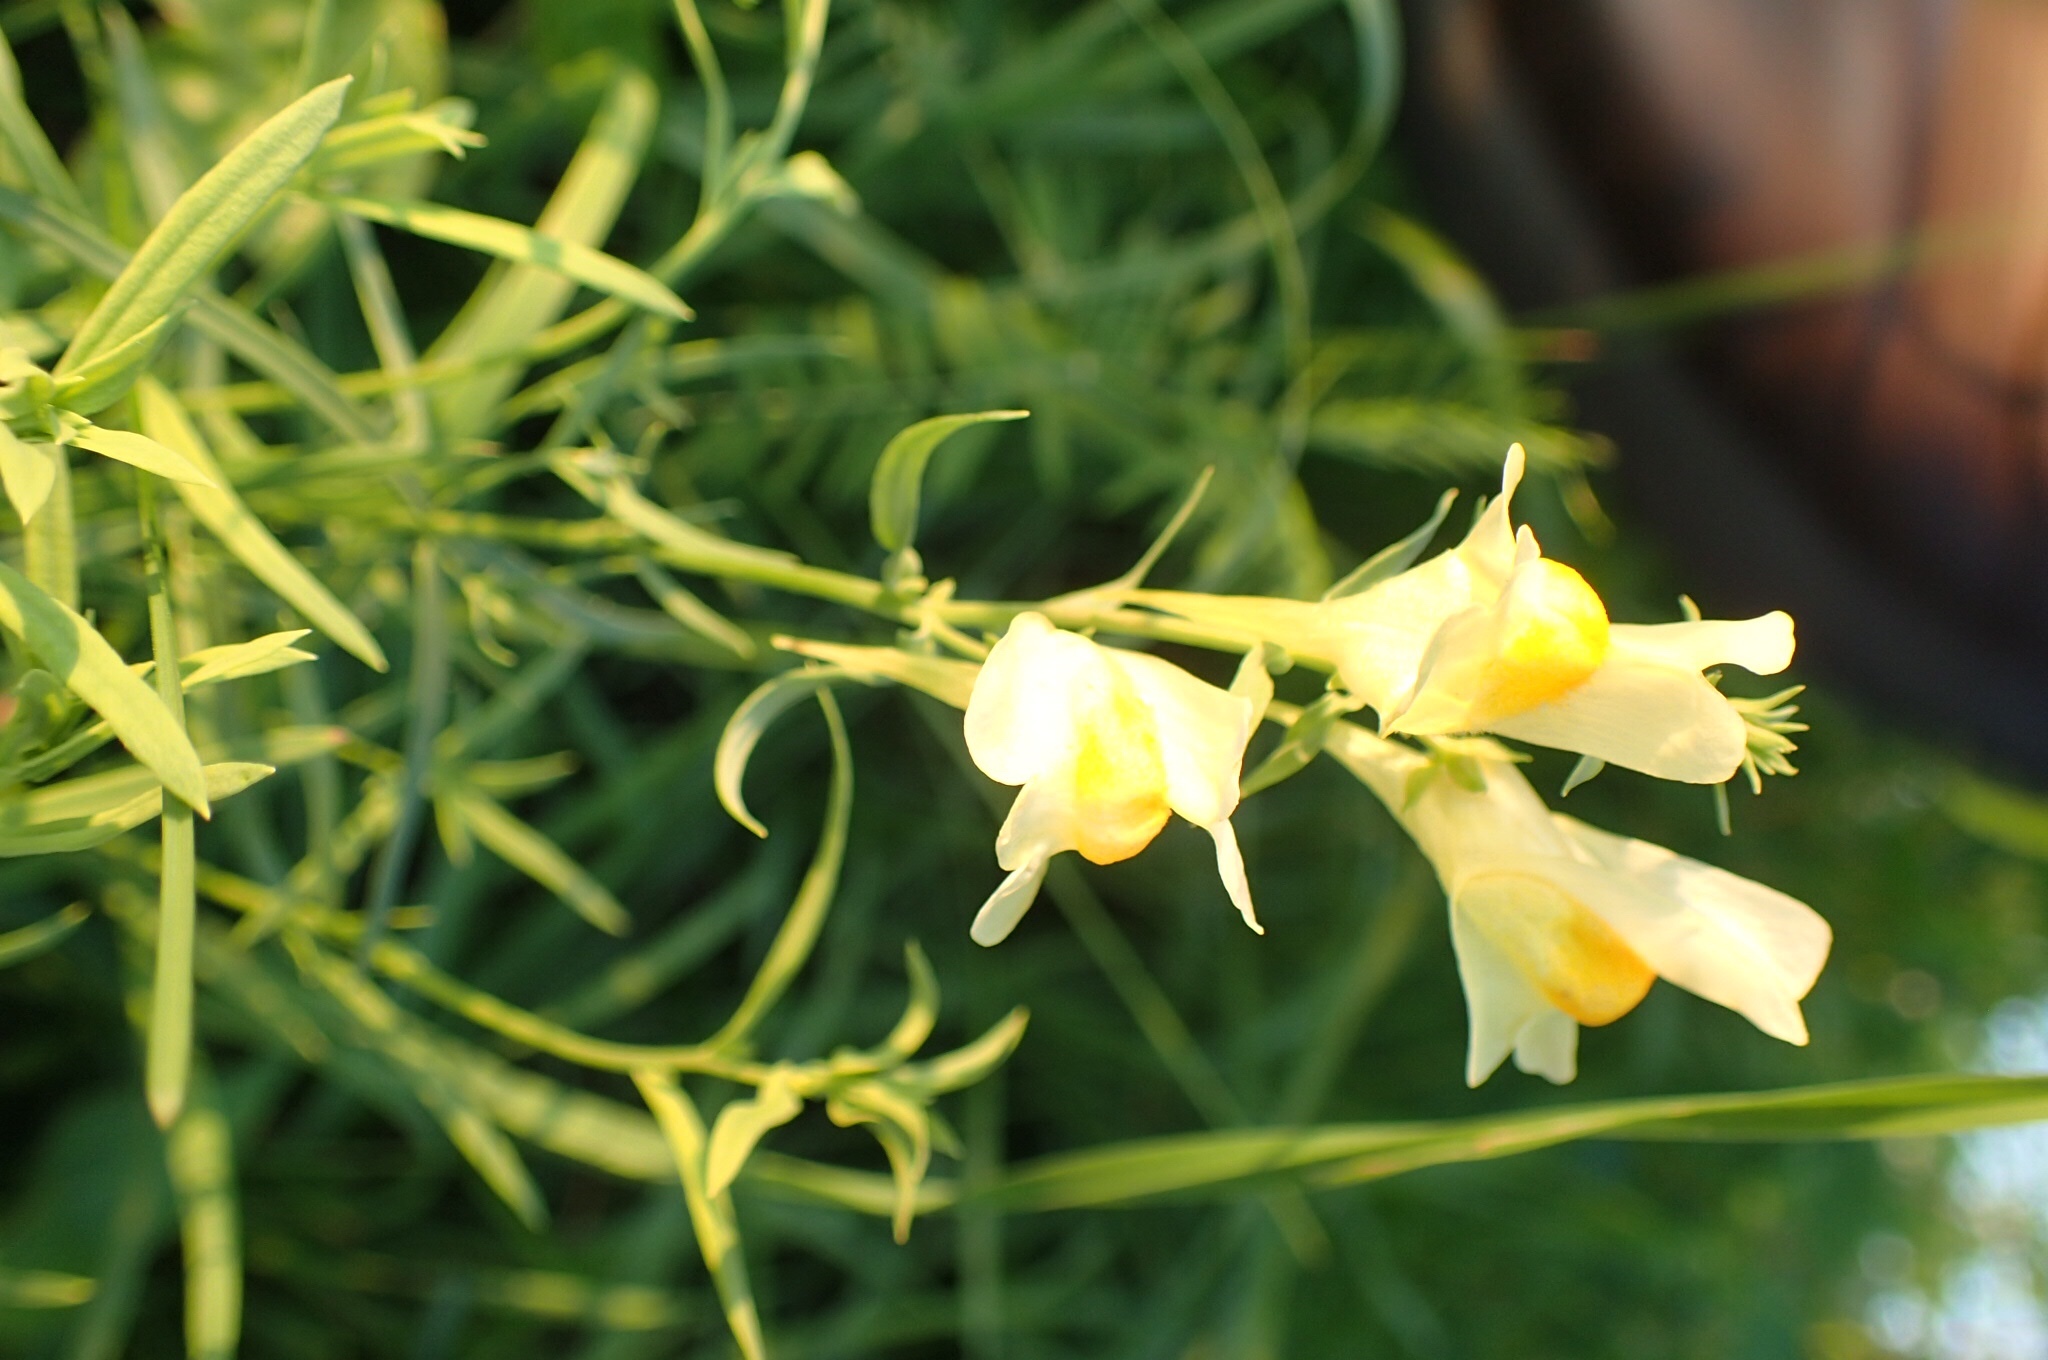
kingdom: Plantae
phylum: Tracheophyta
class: Magnoliopsida
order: Lamiales
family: Plantaginaceae
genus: Linaria
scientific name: Linaria vulgaris
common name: Butter and eggs
